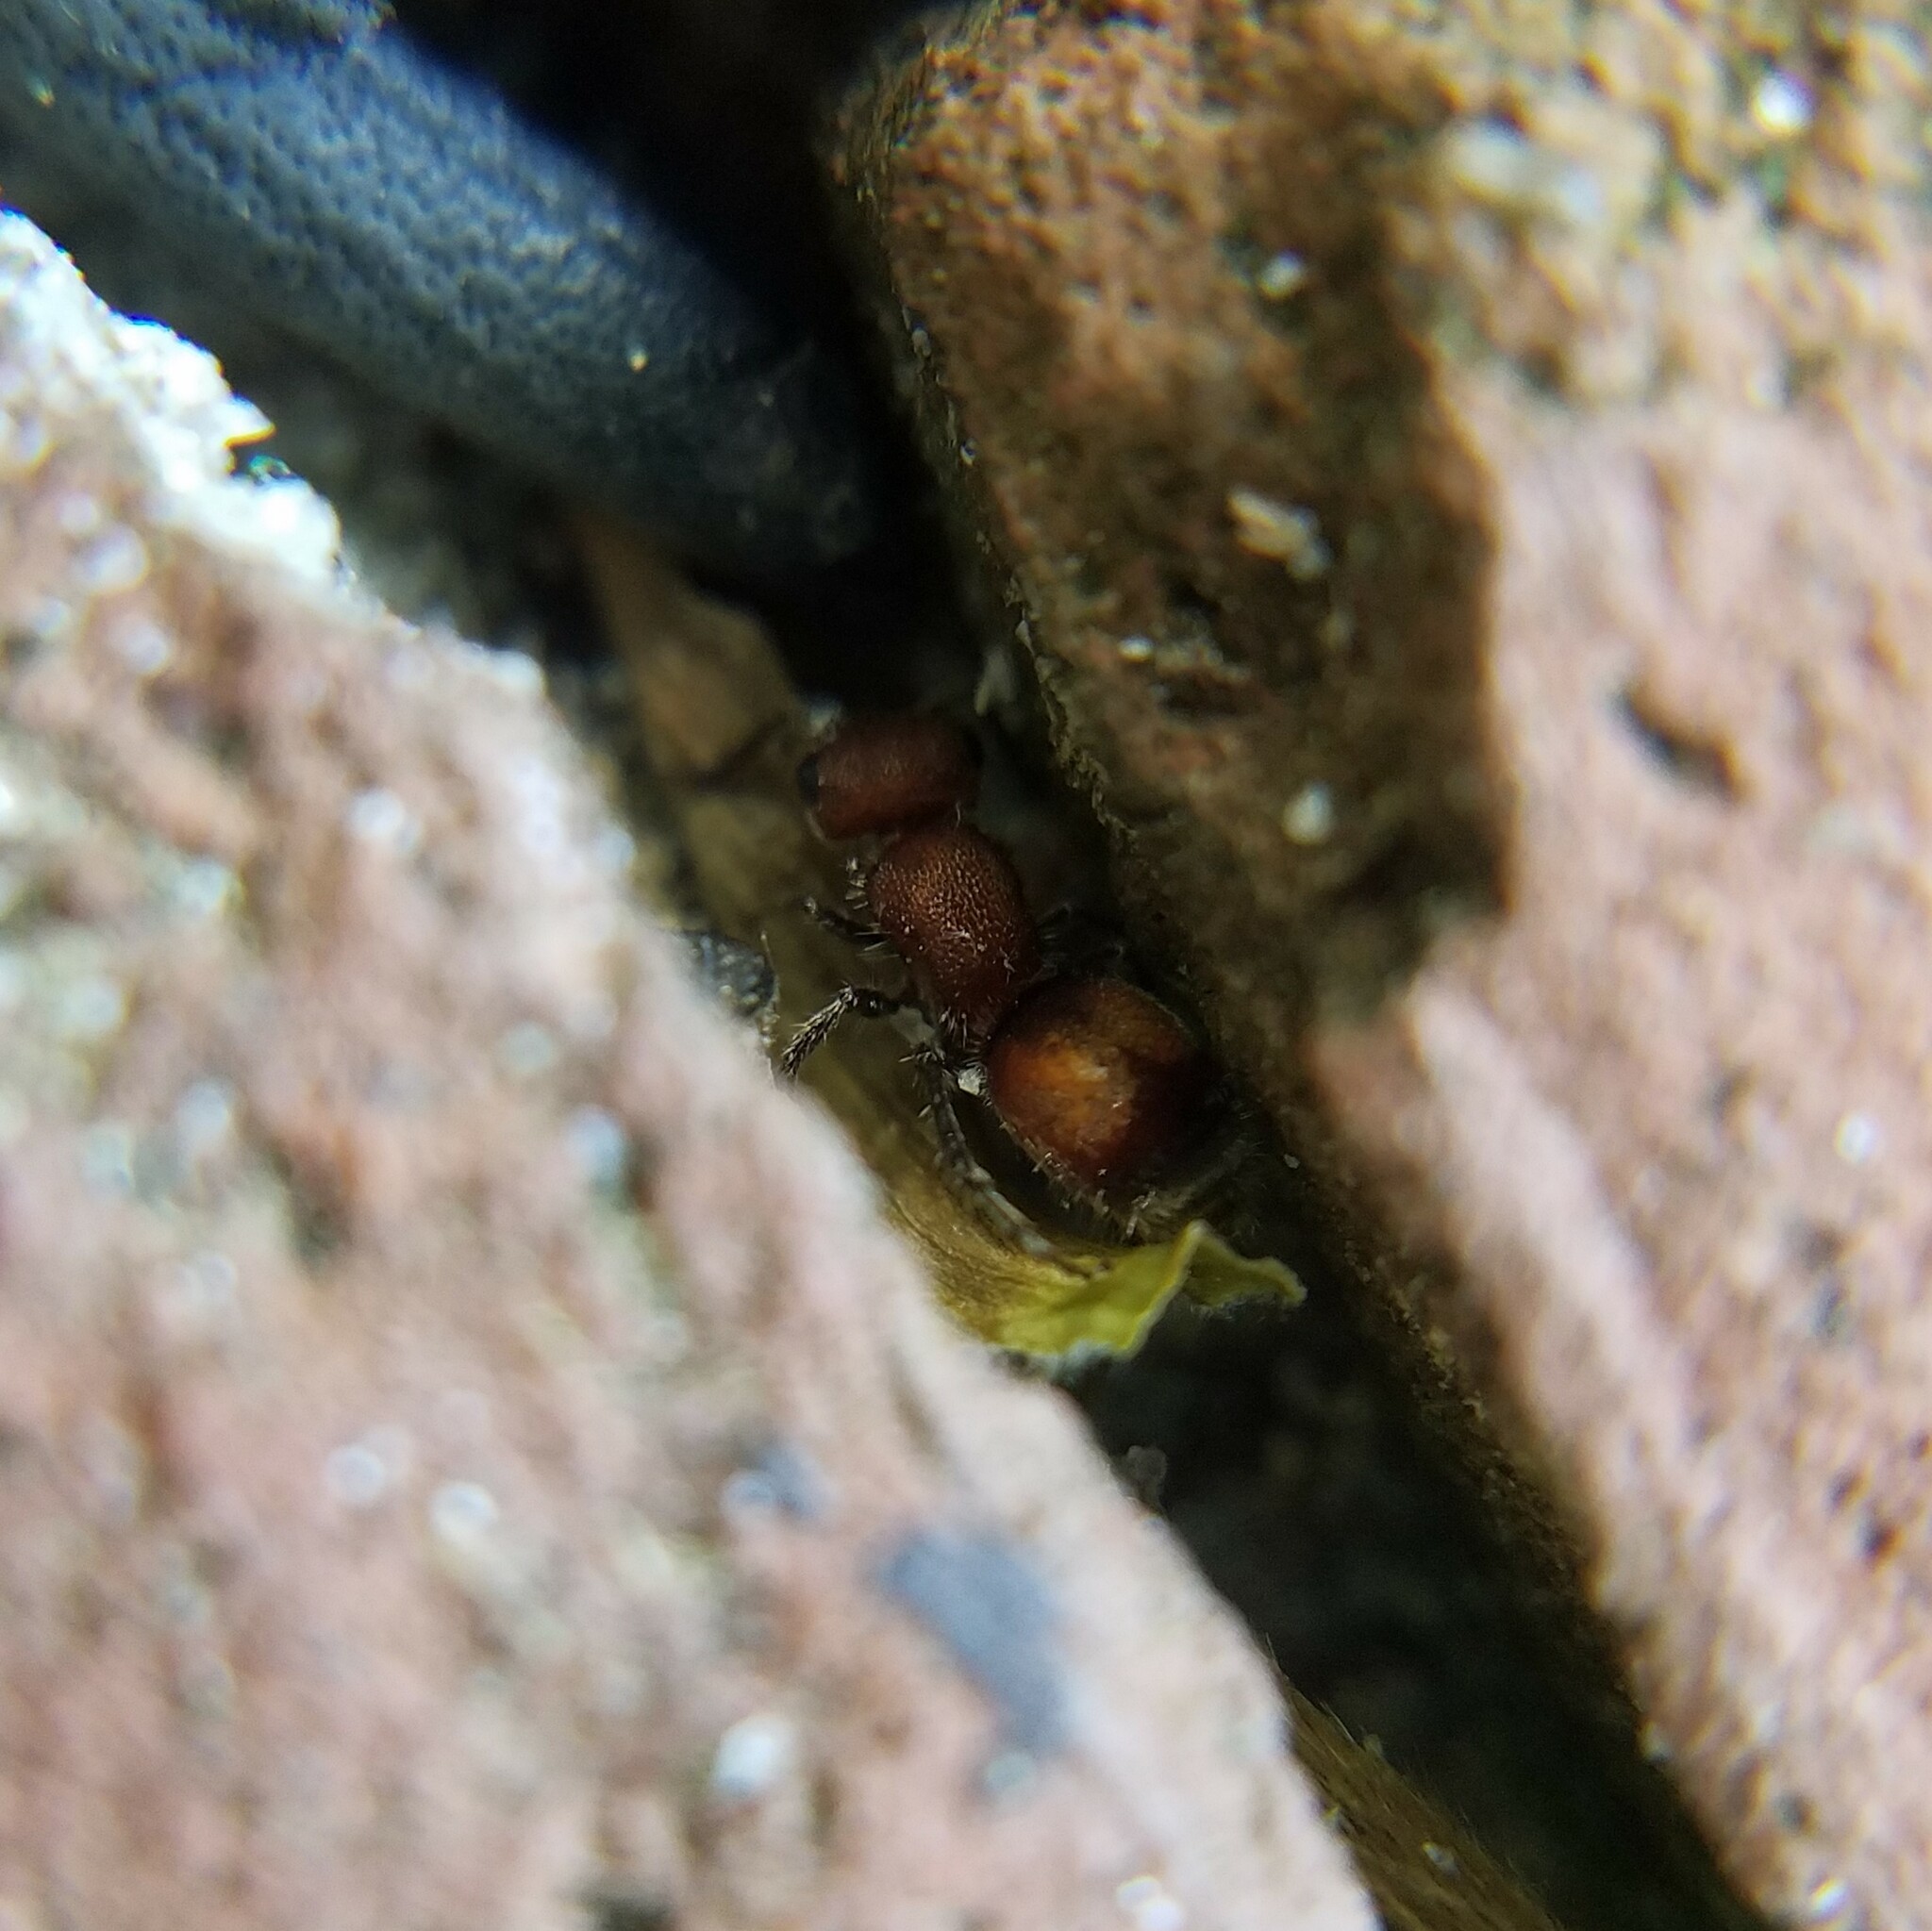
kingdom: Animalia
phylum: Arthropoda
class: Insecta
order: Hymenoptera
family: Mutillidae
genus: Pseudomethoca
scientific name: Pseudomethoca
